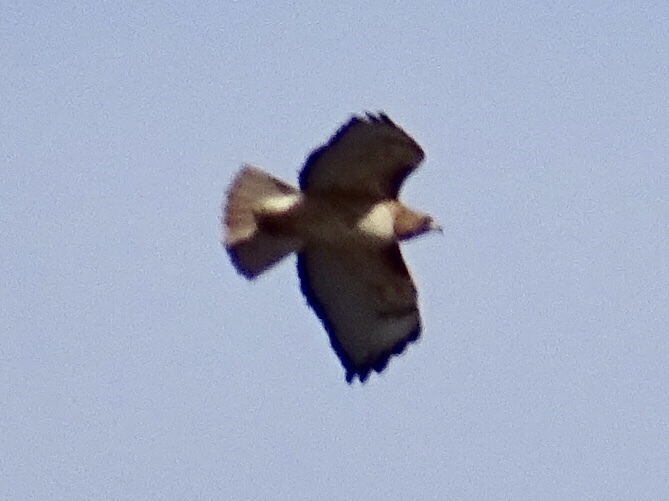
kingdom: Animalia
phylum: Chordata
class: Aves
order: Accipitriformes
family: Accipitridae
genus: Buteo
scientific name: Buteo jamaicensis
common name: Red-tailed hawk
